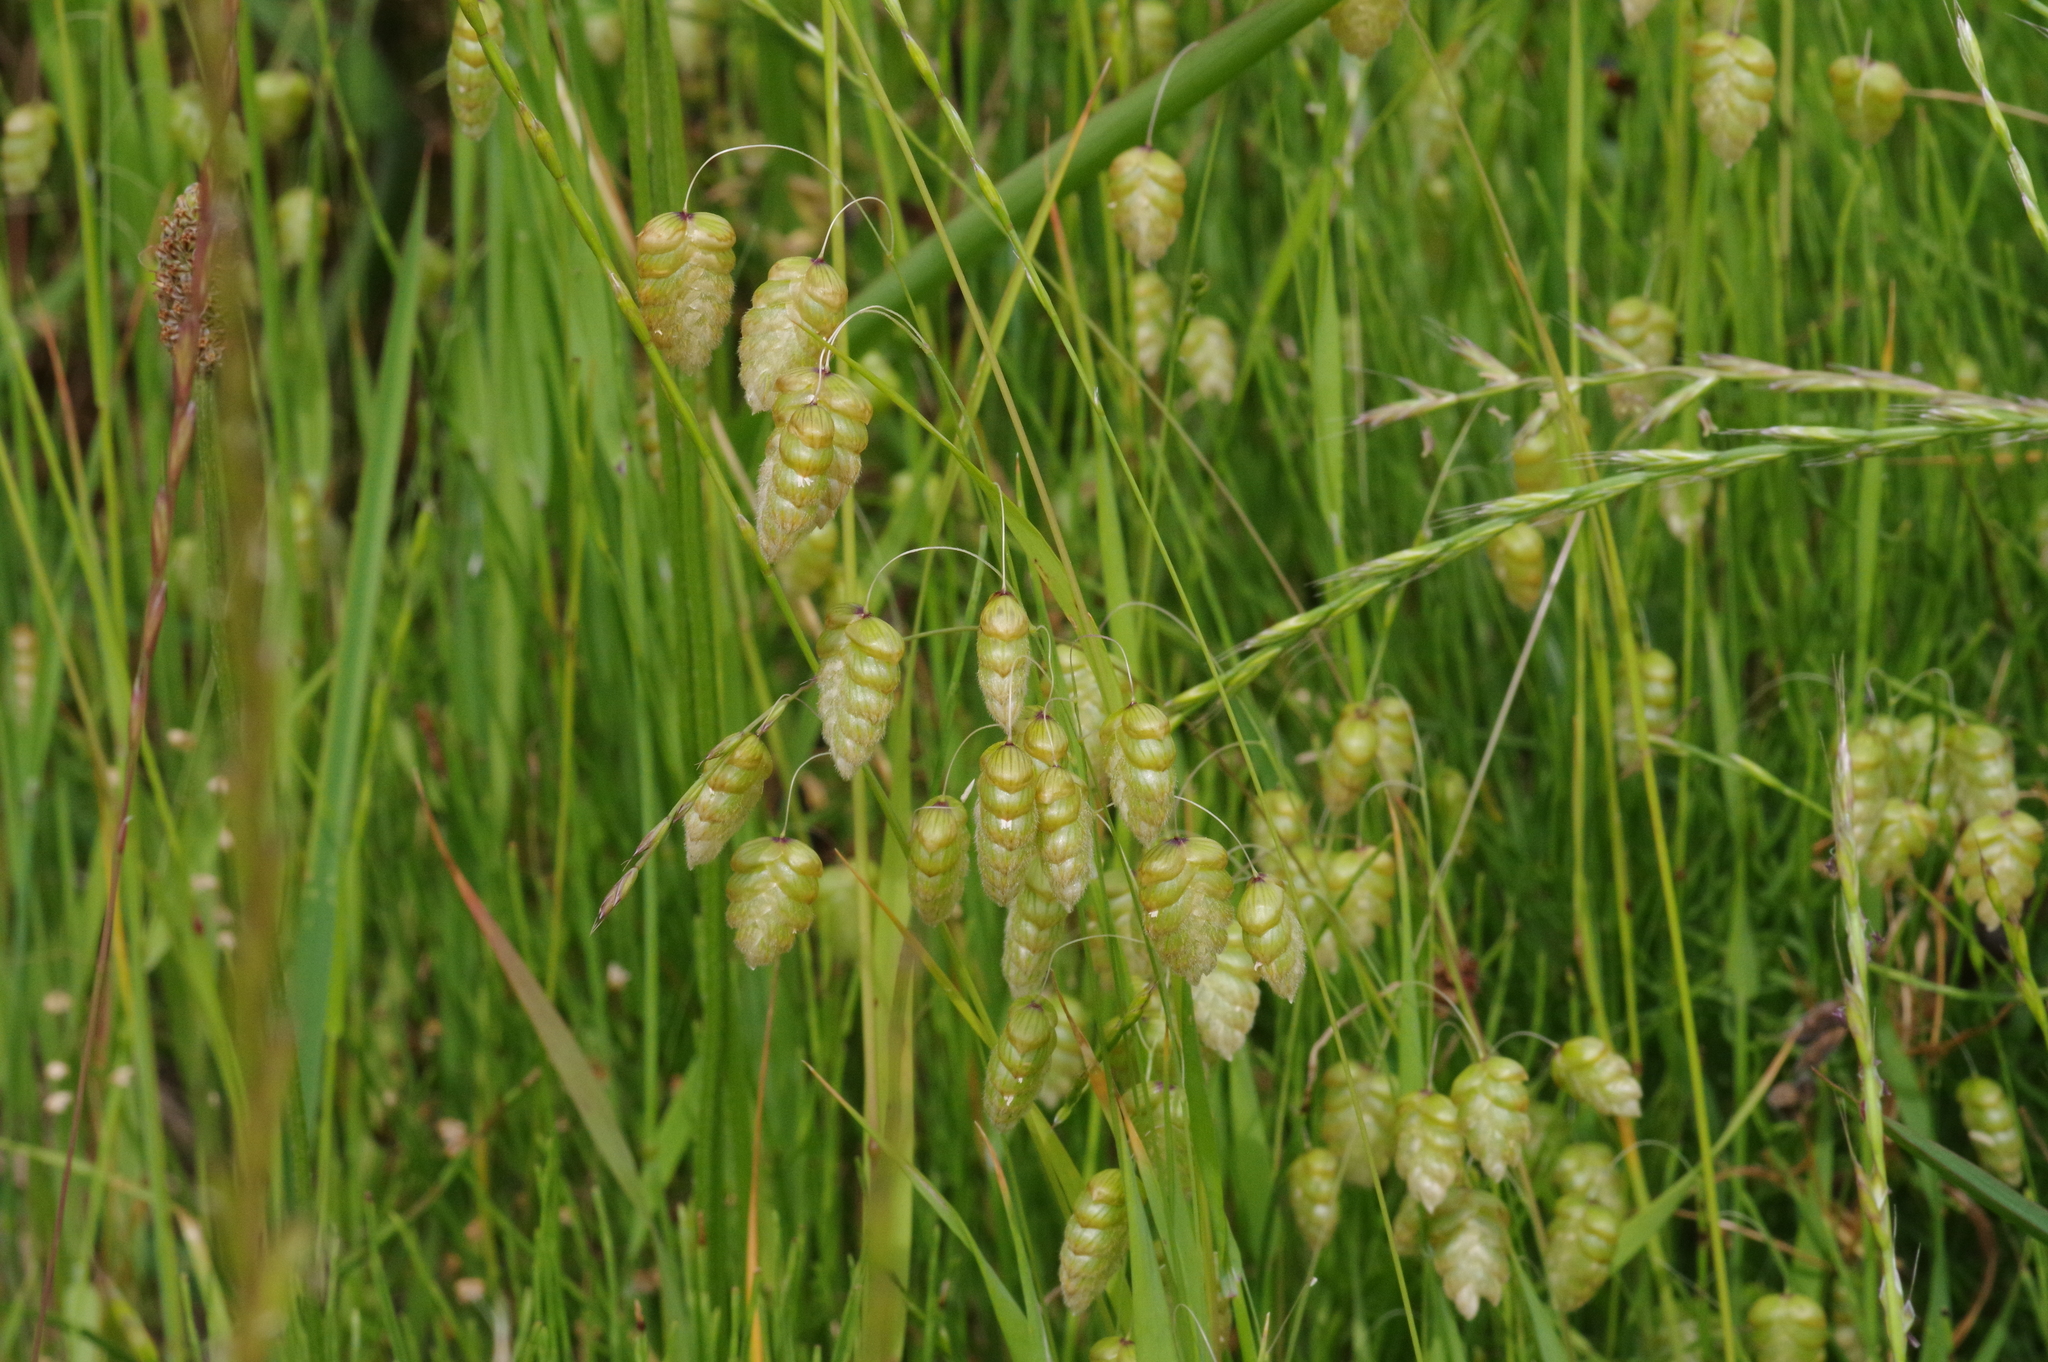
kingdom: Plantae
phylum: Tracheophyta
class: Liliopsida
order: Poales
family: Poaceae
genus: Briza
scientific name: Briza maxima
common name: Big quakinggrass
